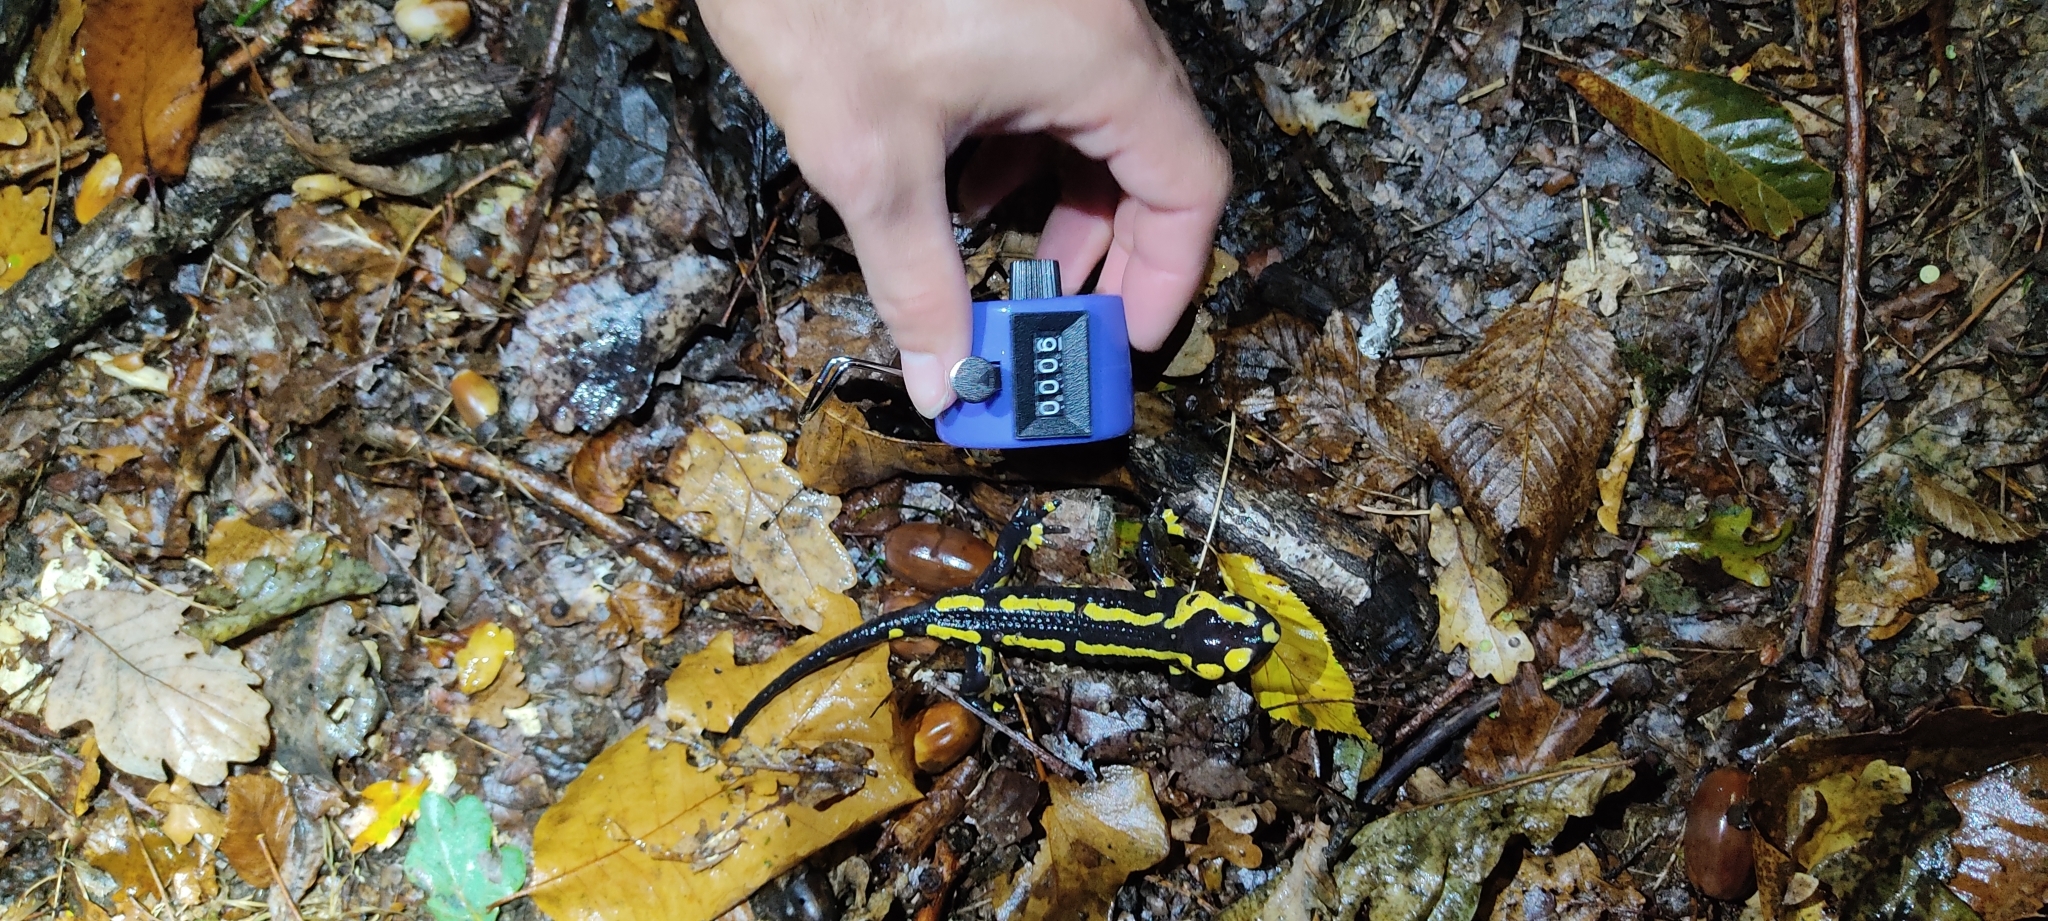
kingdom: Animalia
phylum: Chordata
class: Amphibia
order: Caudata
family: Salamandridae
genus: Salamandra
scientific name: Salamandra salamandra
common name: Fire salamander
